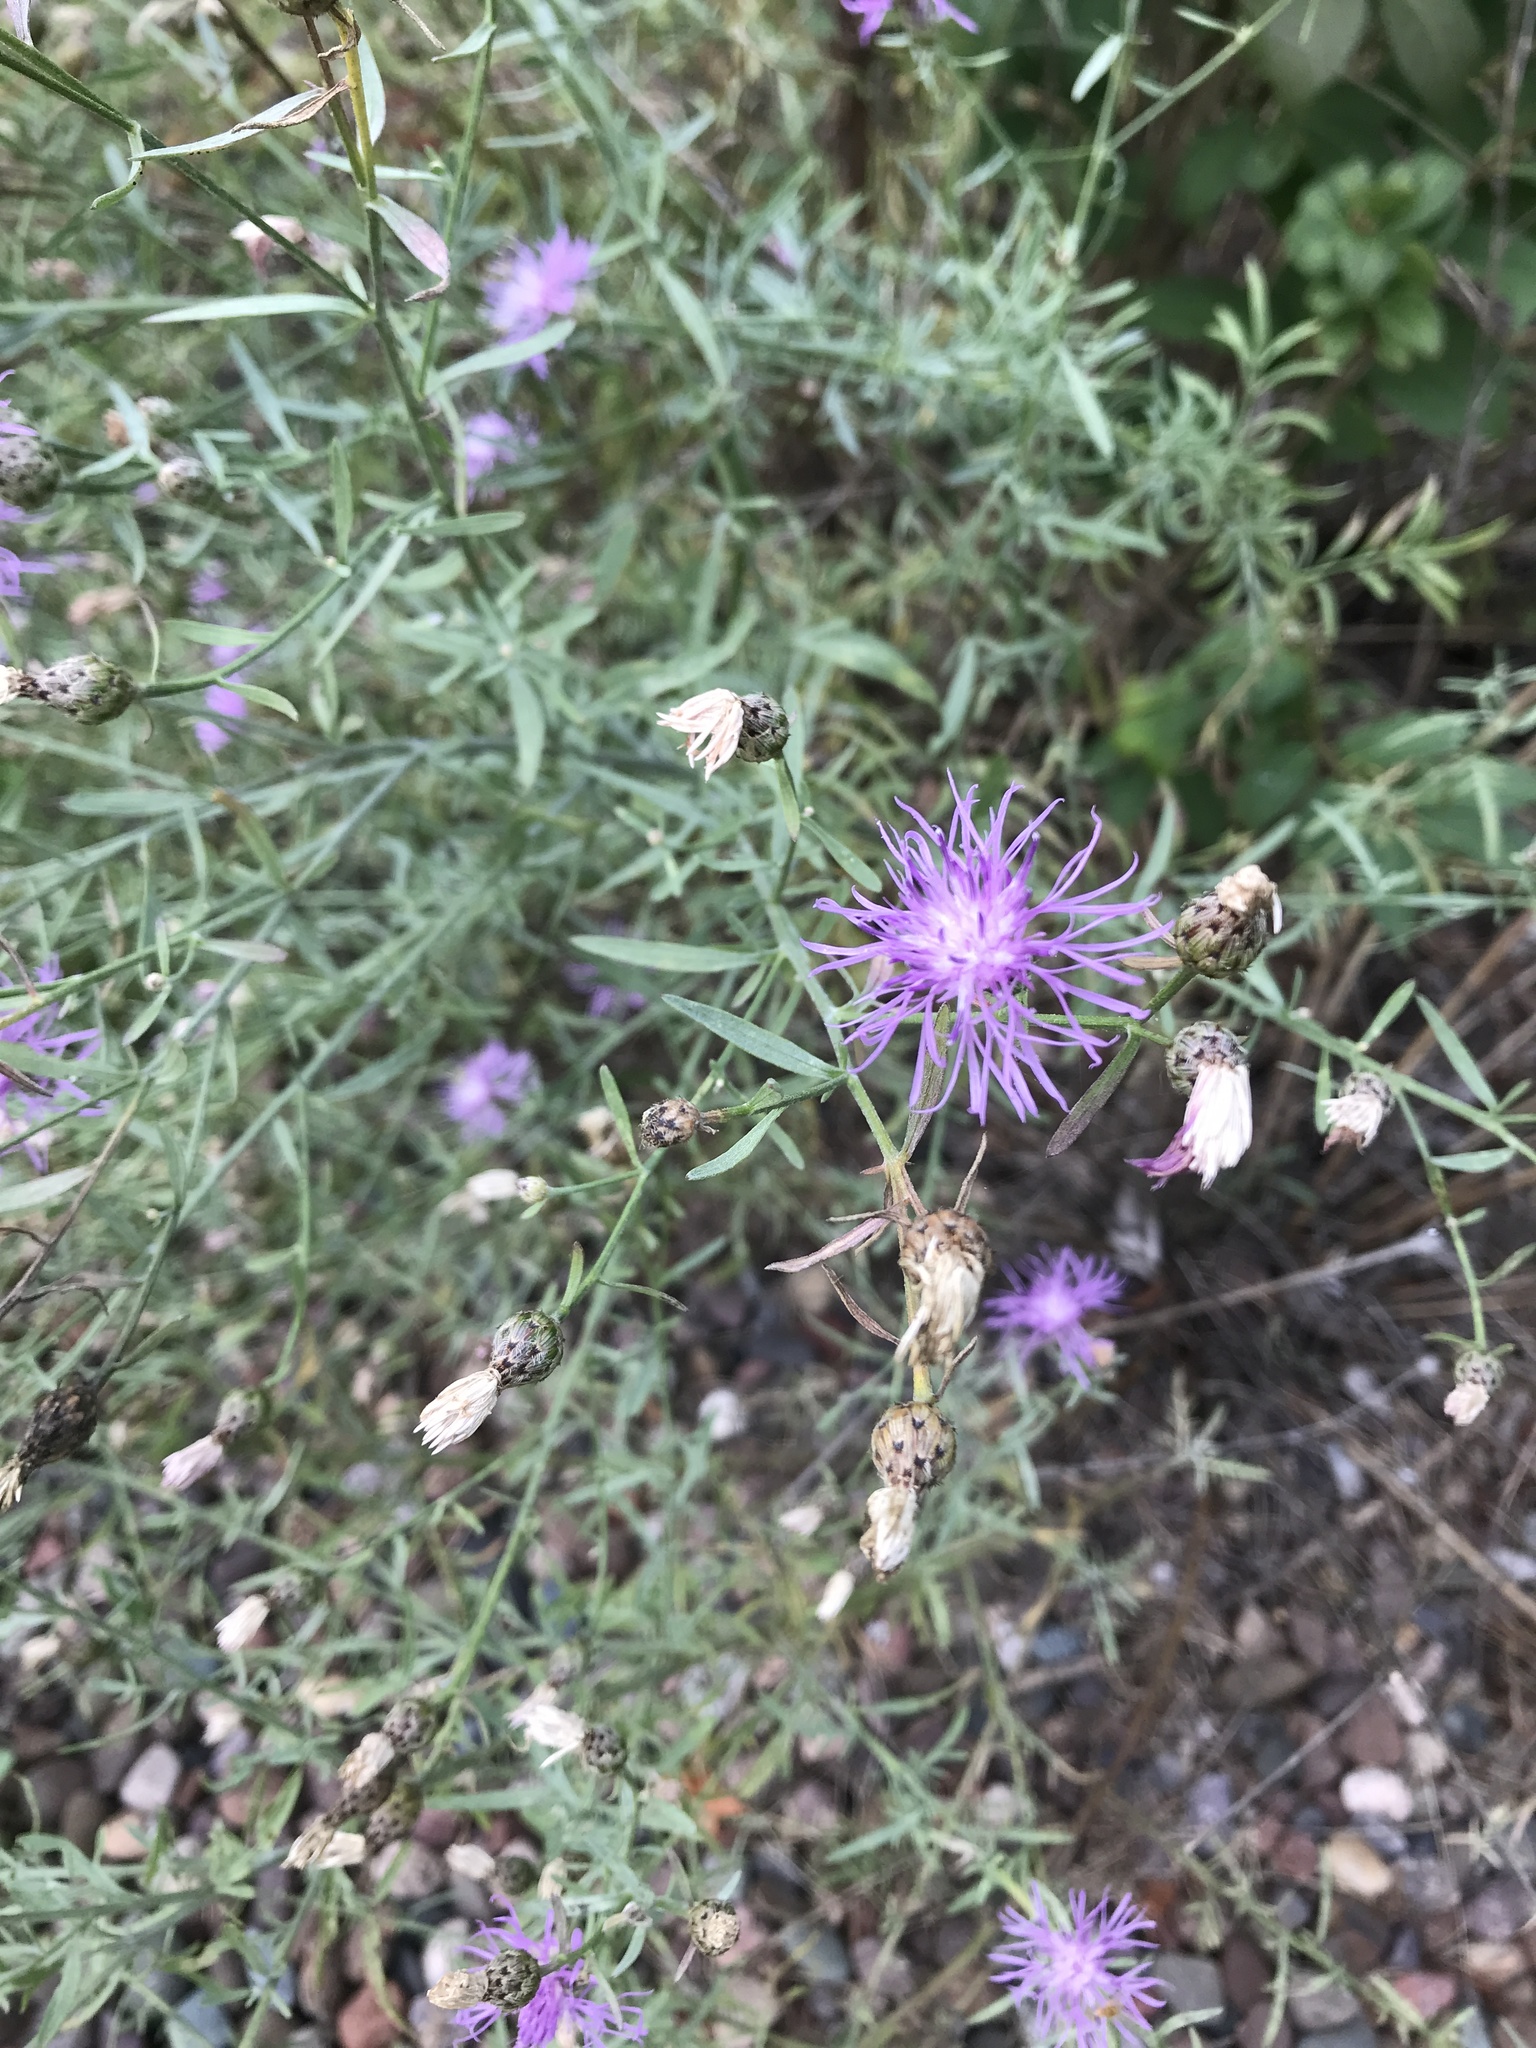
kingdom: Plantae
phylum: Tracheophyta
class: Magnoliopsida
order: Asterales
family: Asteraceae
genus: Centaurea
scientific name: Centaurea stoebe
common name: Spotted knapweed
